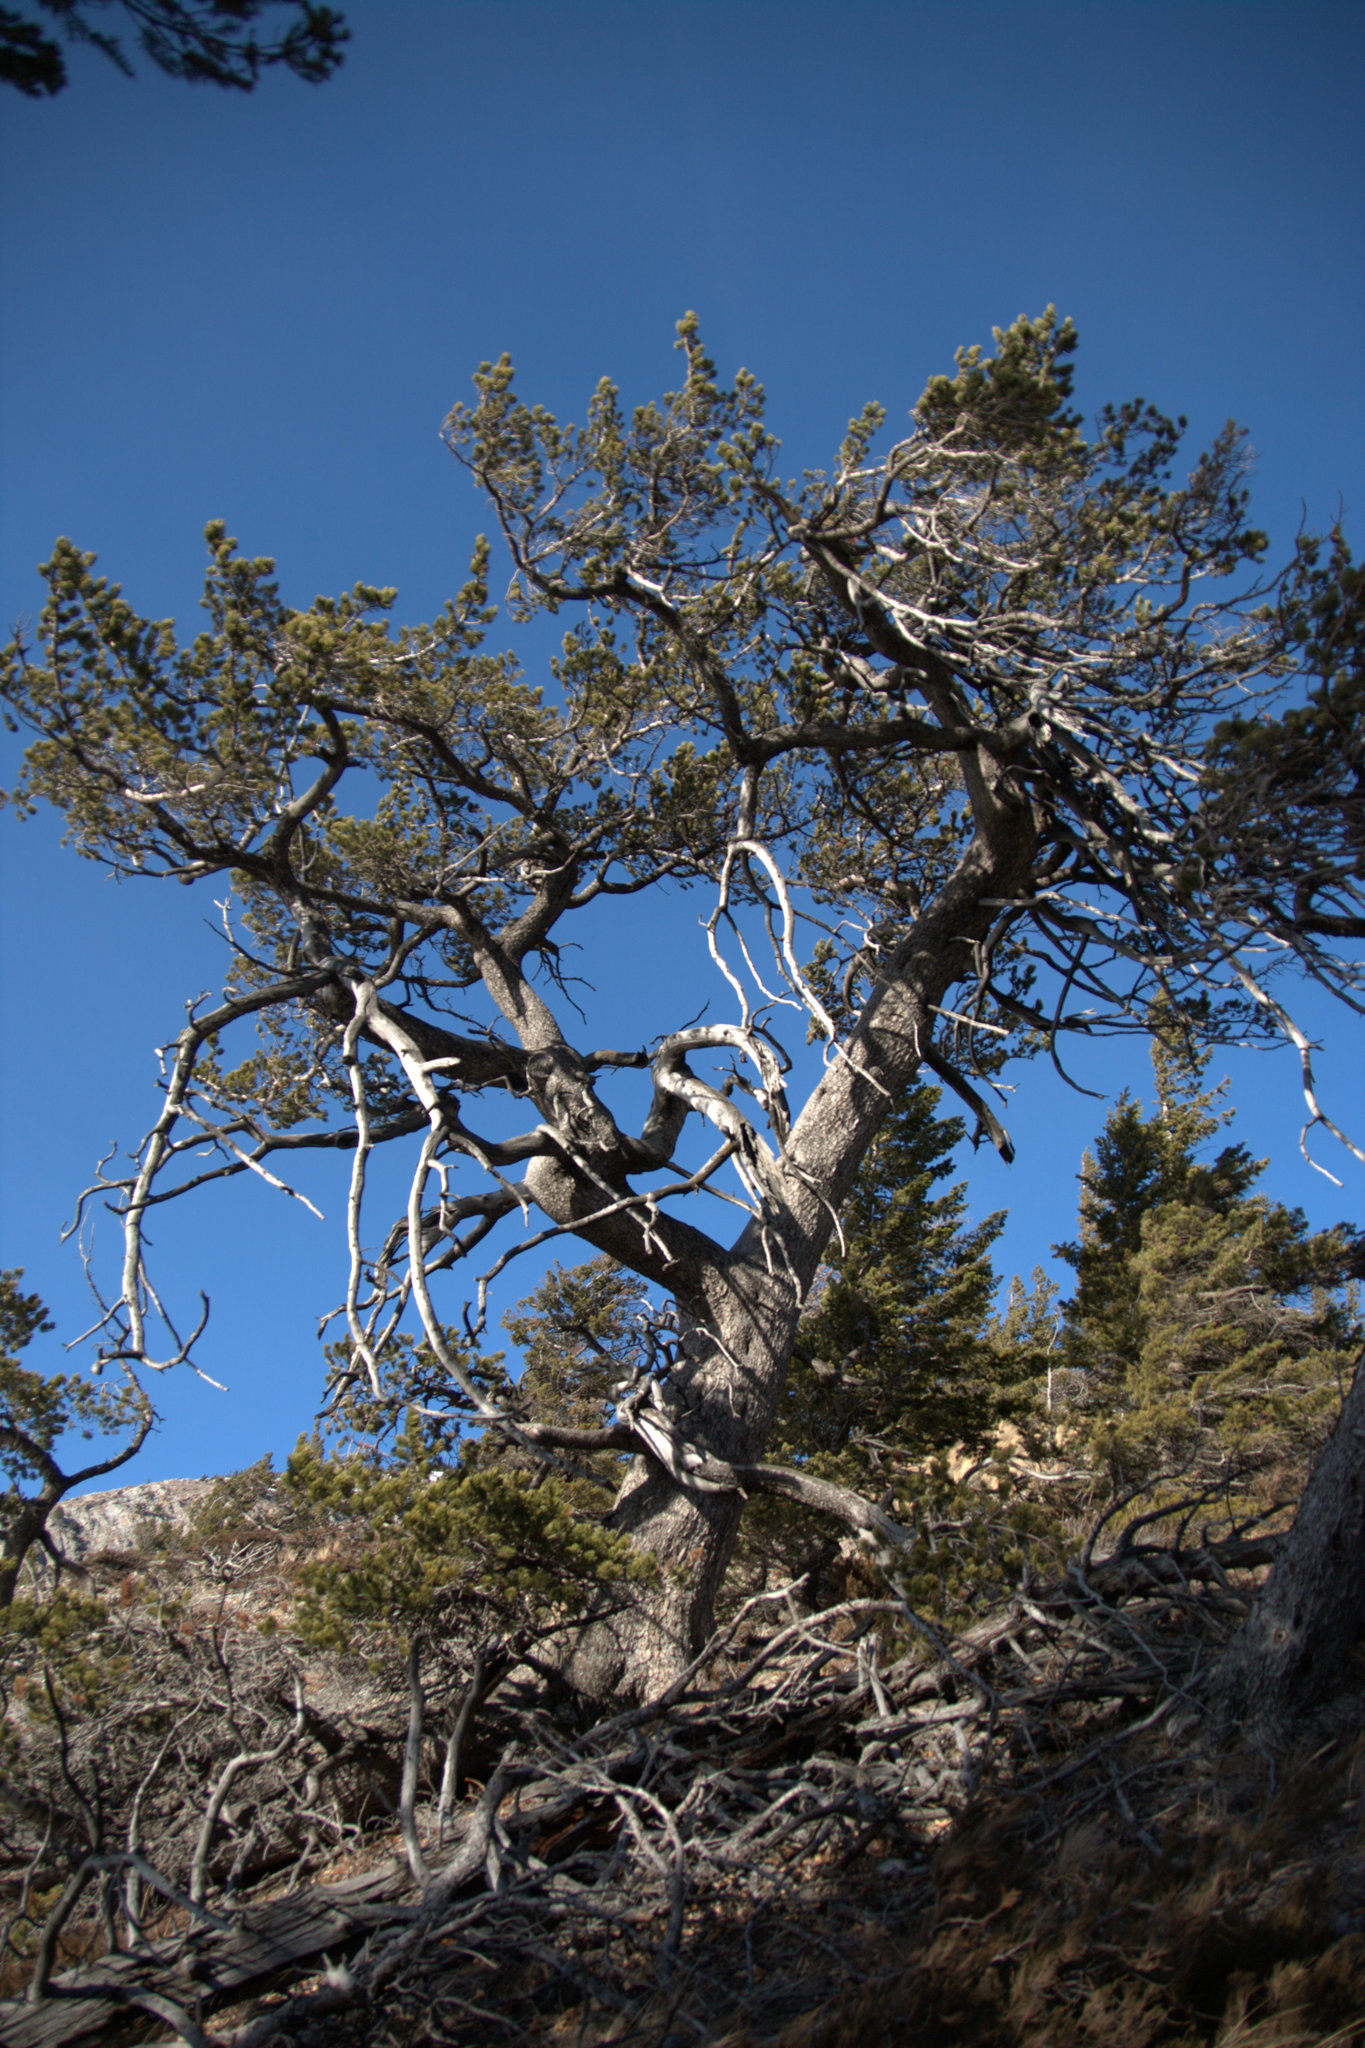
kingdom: Plantae
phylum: Tracheophyta
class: Pinopsida
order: Pinales
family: Pinaceae
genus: Pinus
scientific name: Pinus flexilis
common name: Limber pine
